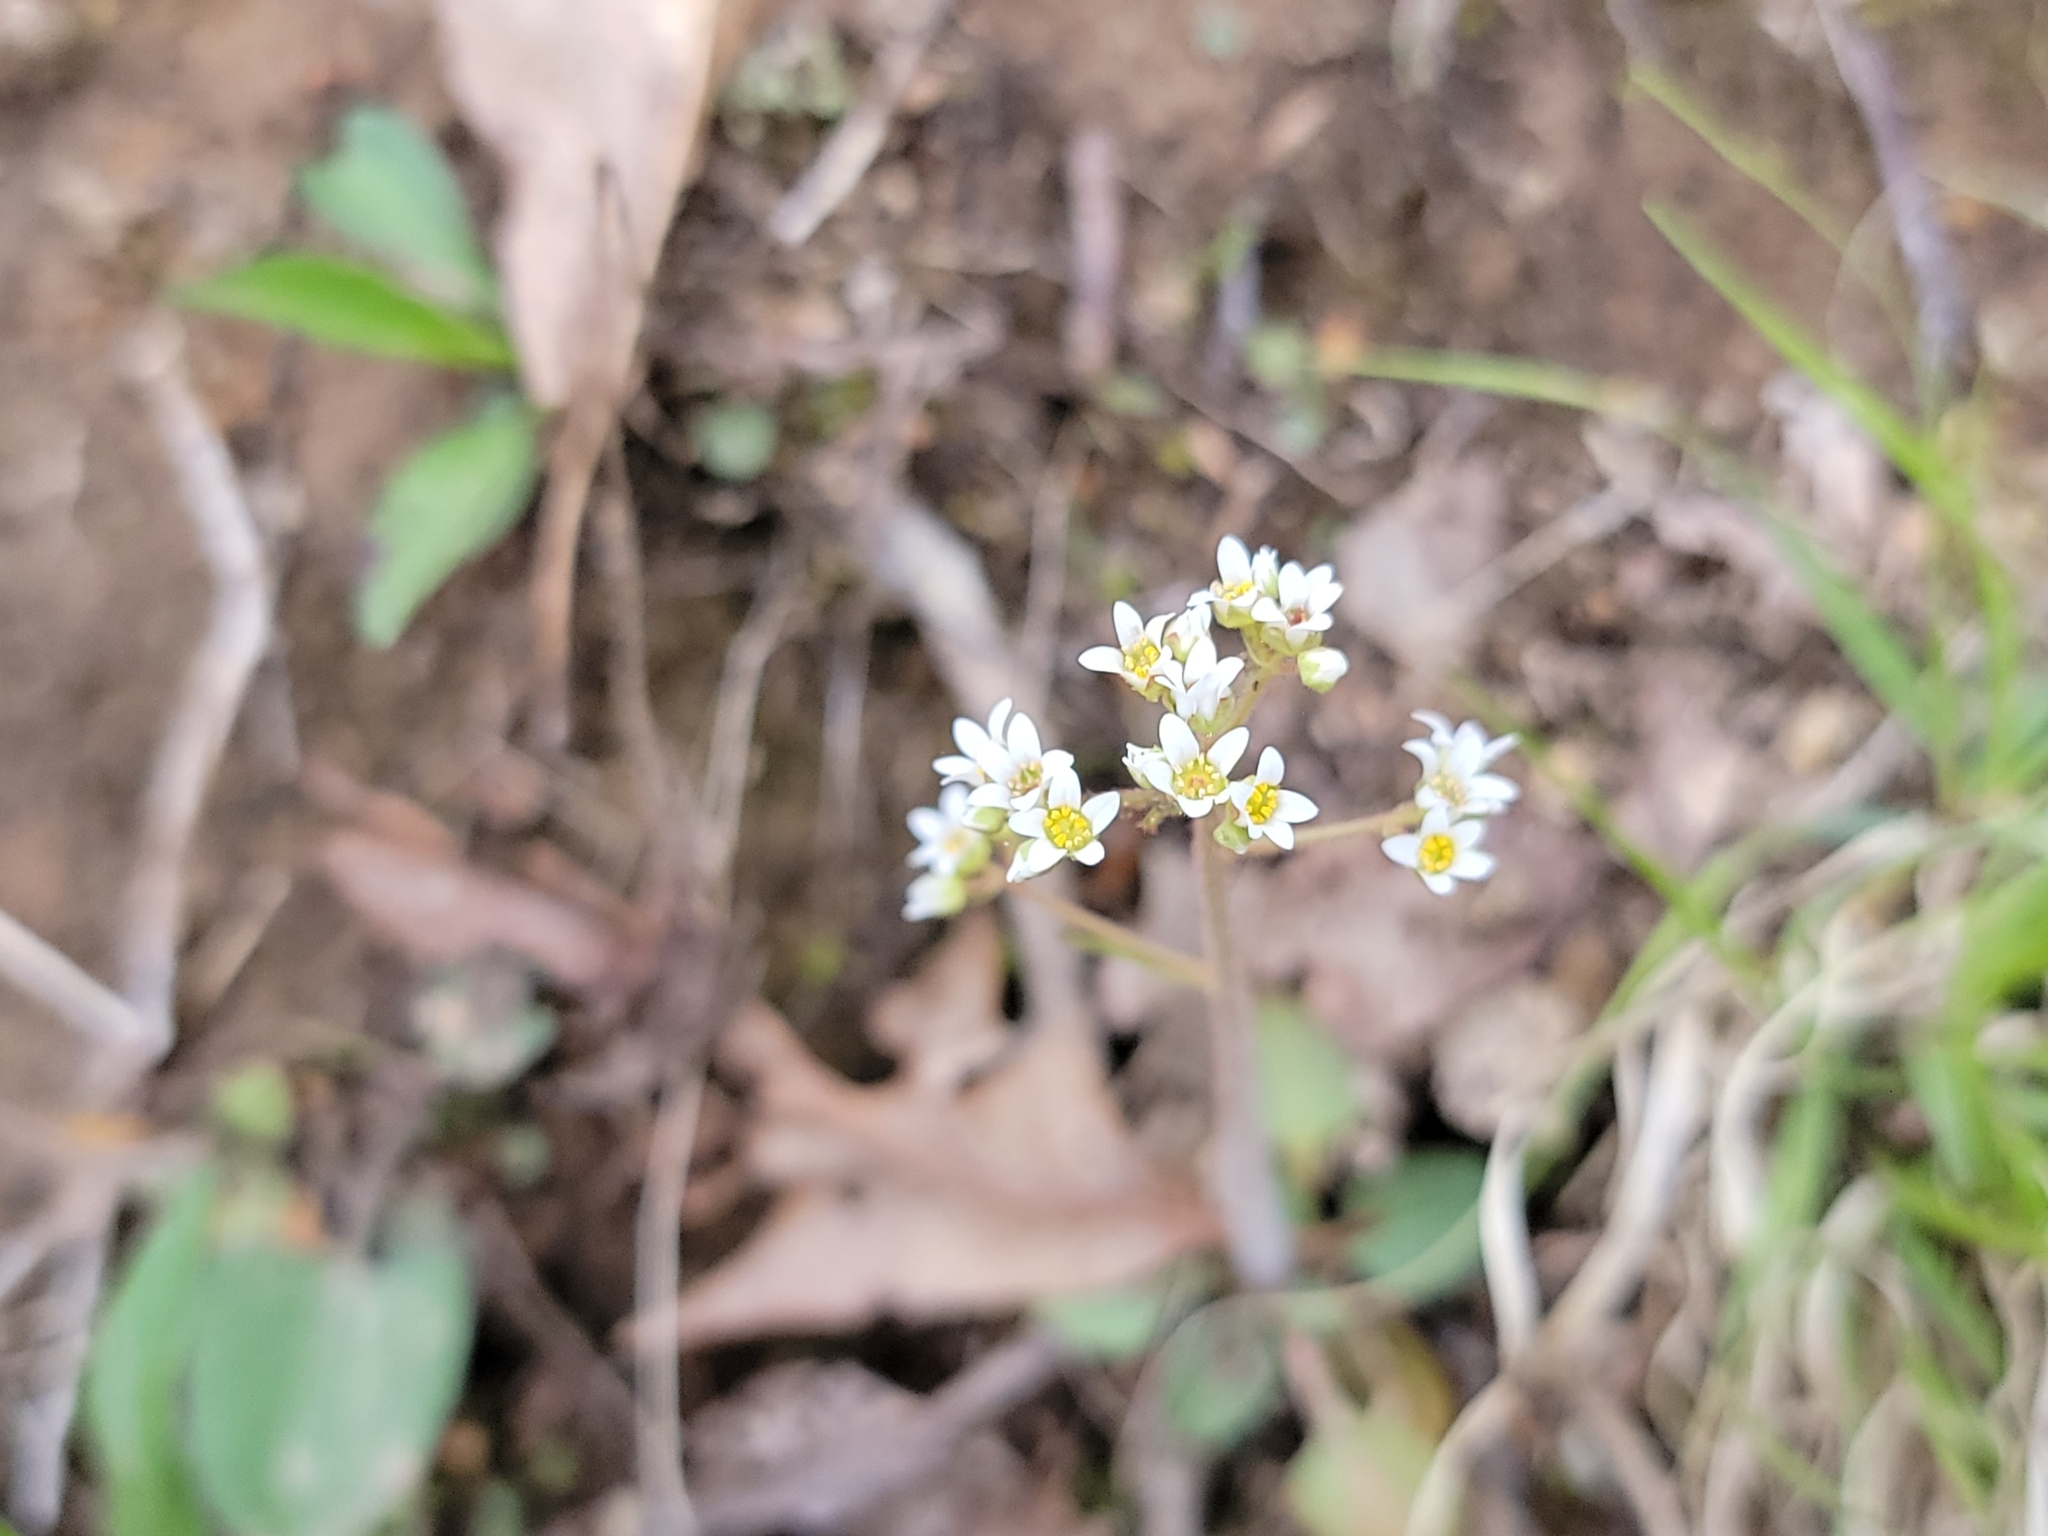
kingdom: Plantae
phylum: Tracheophyta
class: Magnoliopsida
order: Saxifragales
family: Saxifragaceae
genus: Micranthes
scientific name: Micranthes virginiensis
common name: Early saxifrage
